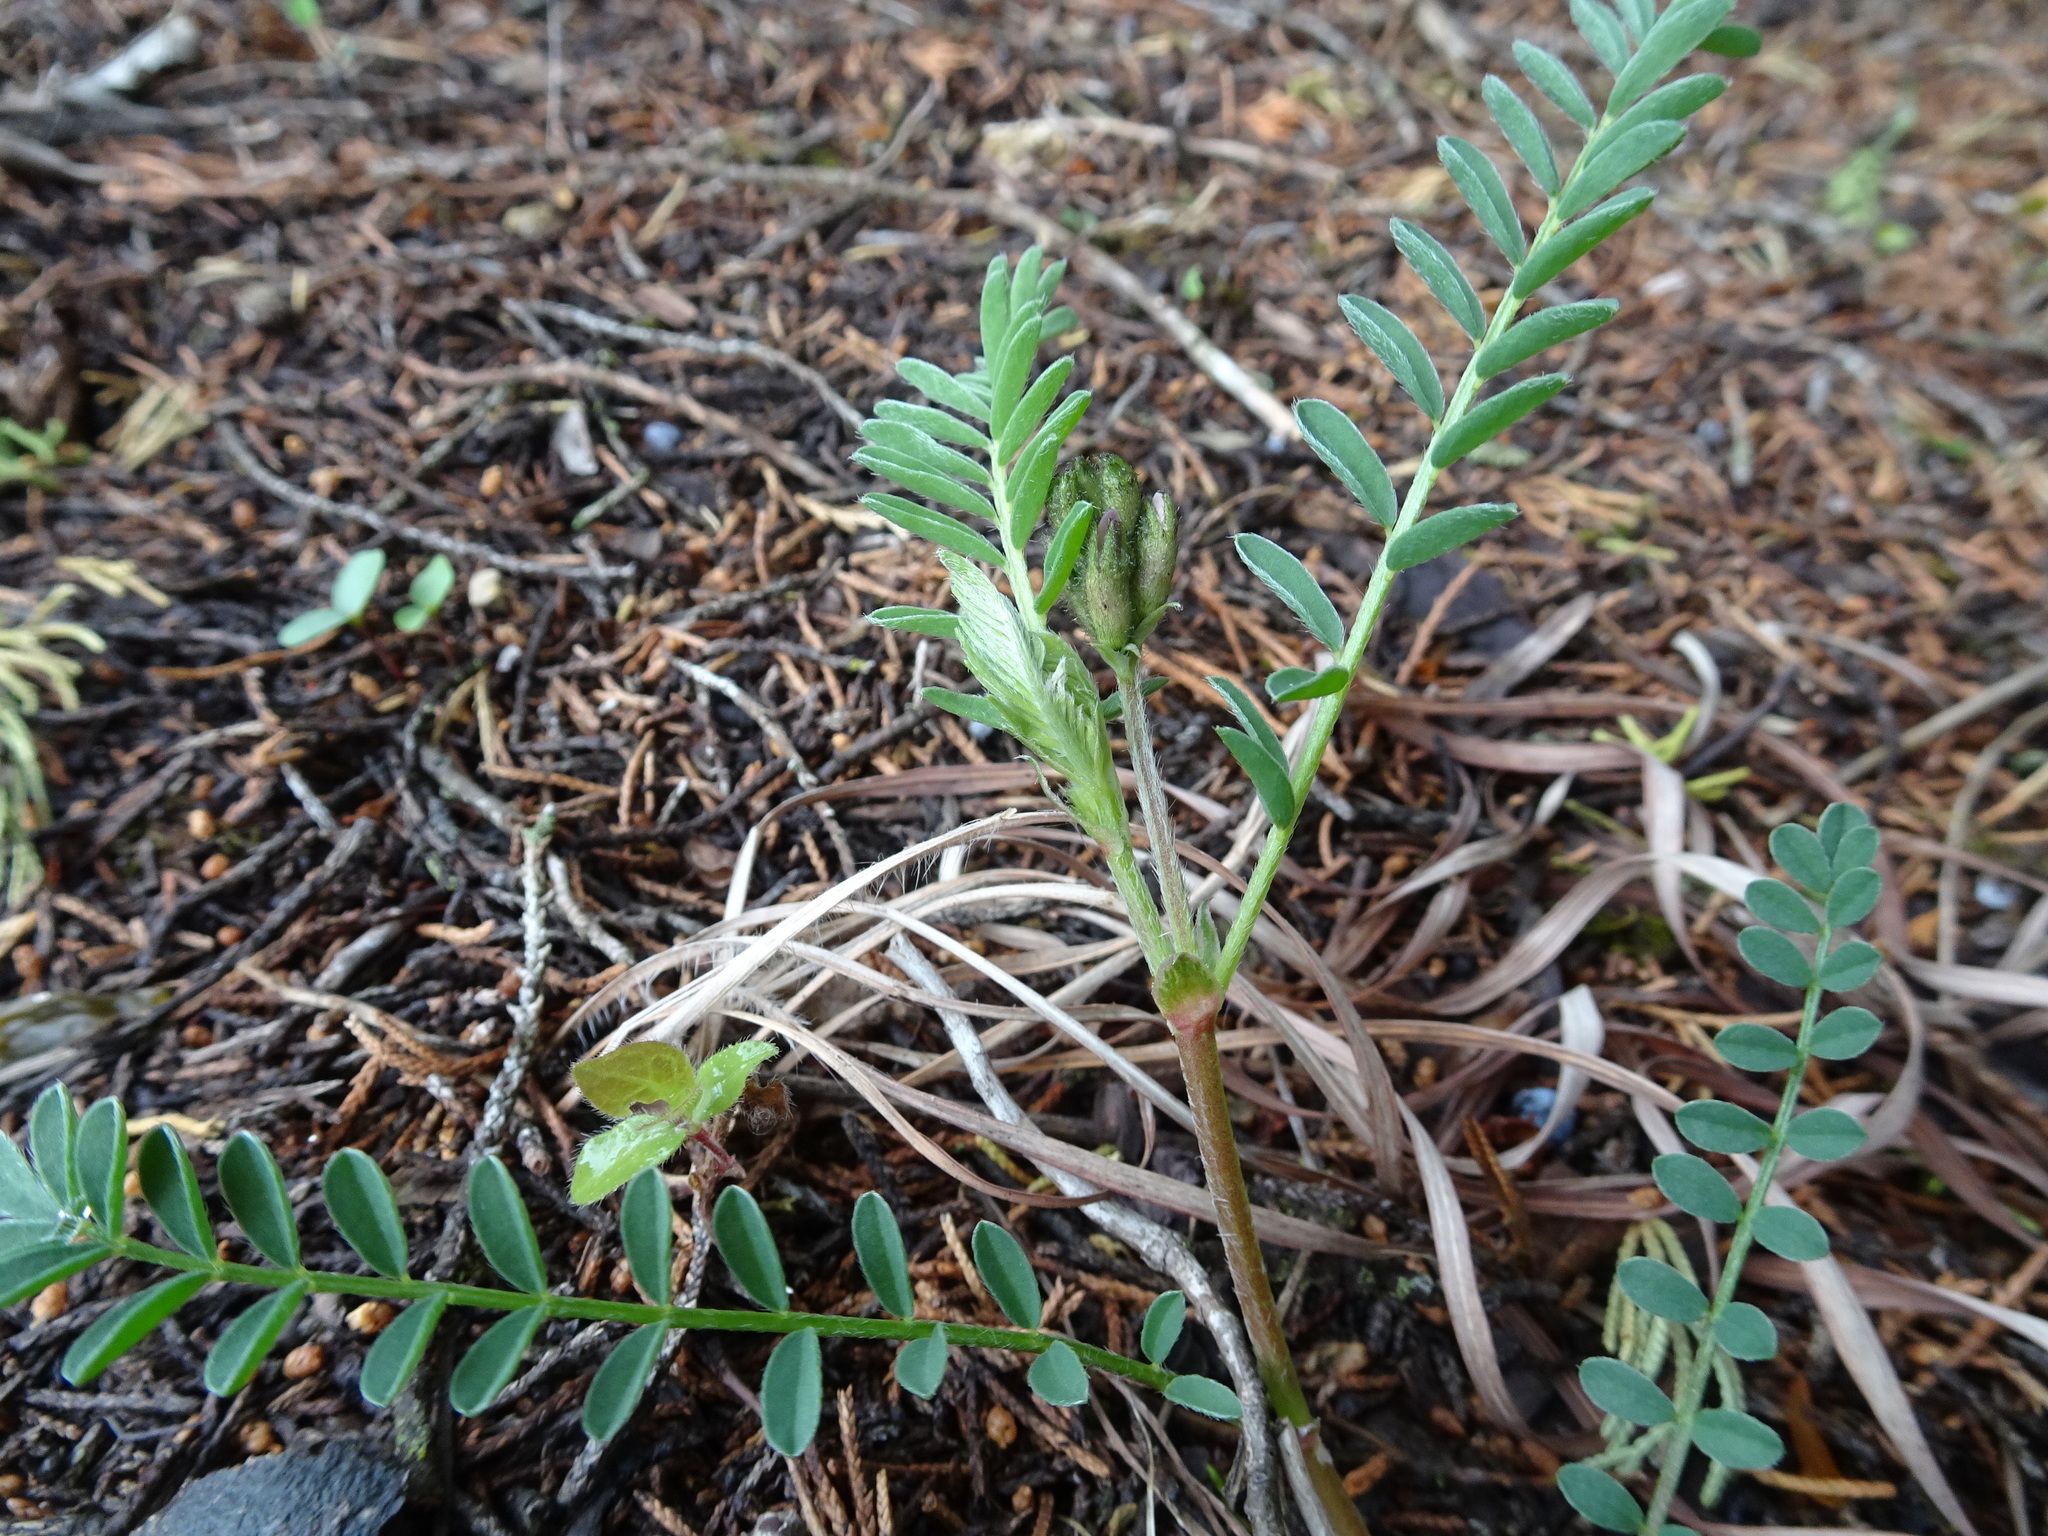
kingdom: Plantae
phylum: Tracheophyta
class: Magnoliopsida
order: Fabales
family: Fabaceae
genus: Astragalus
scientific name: Astragalus crassicarpus
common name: Ground-plum milk-vetch
